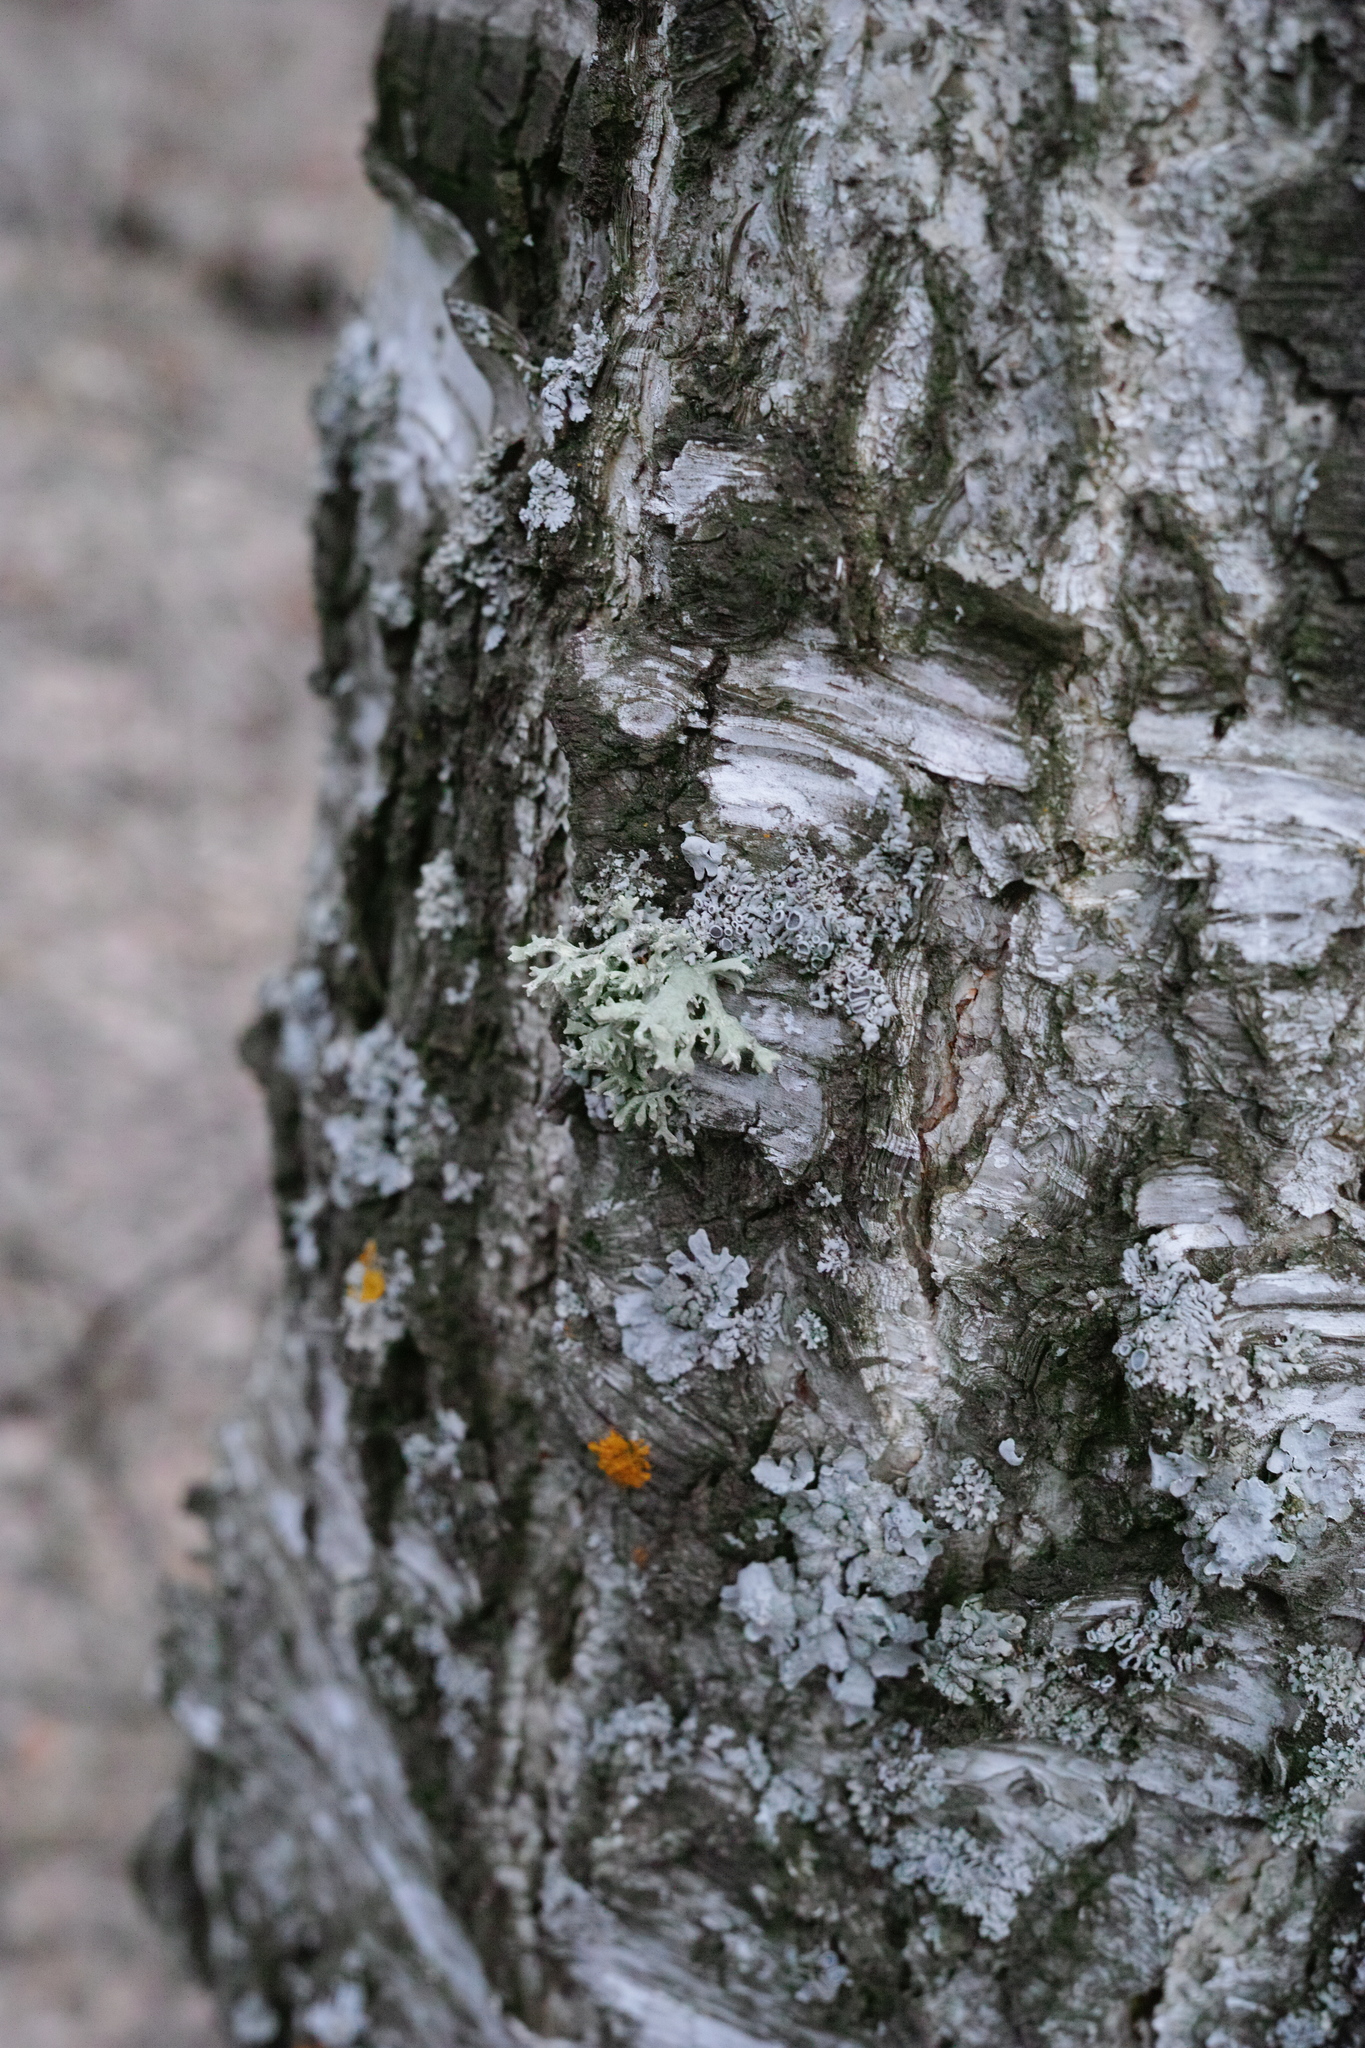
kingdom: Fungi
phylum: Ascomycota
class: Lecanoromycetes
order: Lecanorales
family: Parmeliaceae
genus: Evernia
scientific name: Evernia prunastri
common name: Oak moss
